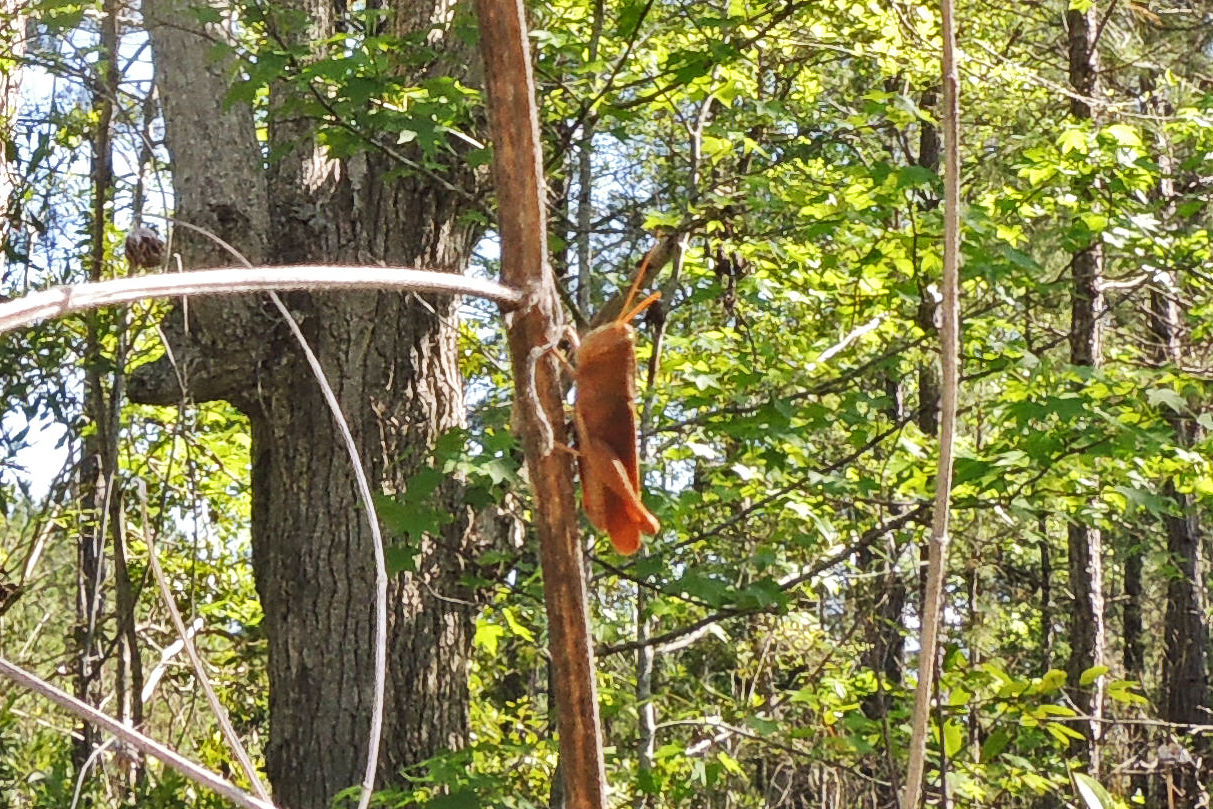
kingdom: Animalia
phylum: Arthropoda
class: Insecta
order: Orthoptera
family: Acrididae
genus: Schistocerca
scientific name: Schistocerca damnifica
